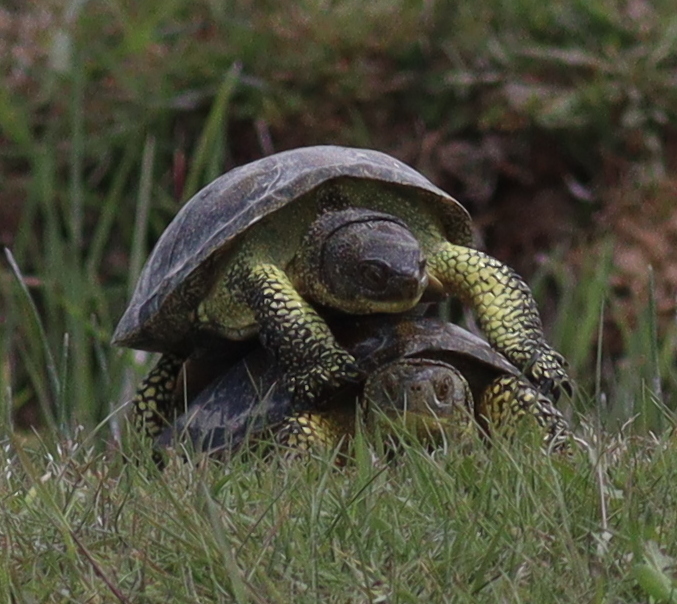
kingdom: Animalia
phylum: Chordata
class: Testudines
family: Emydidae
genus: Emys
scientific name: Emys orbicularis
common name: European pond turtle
